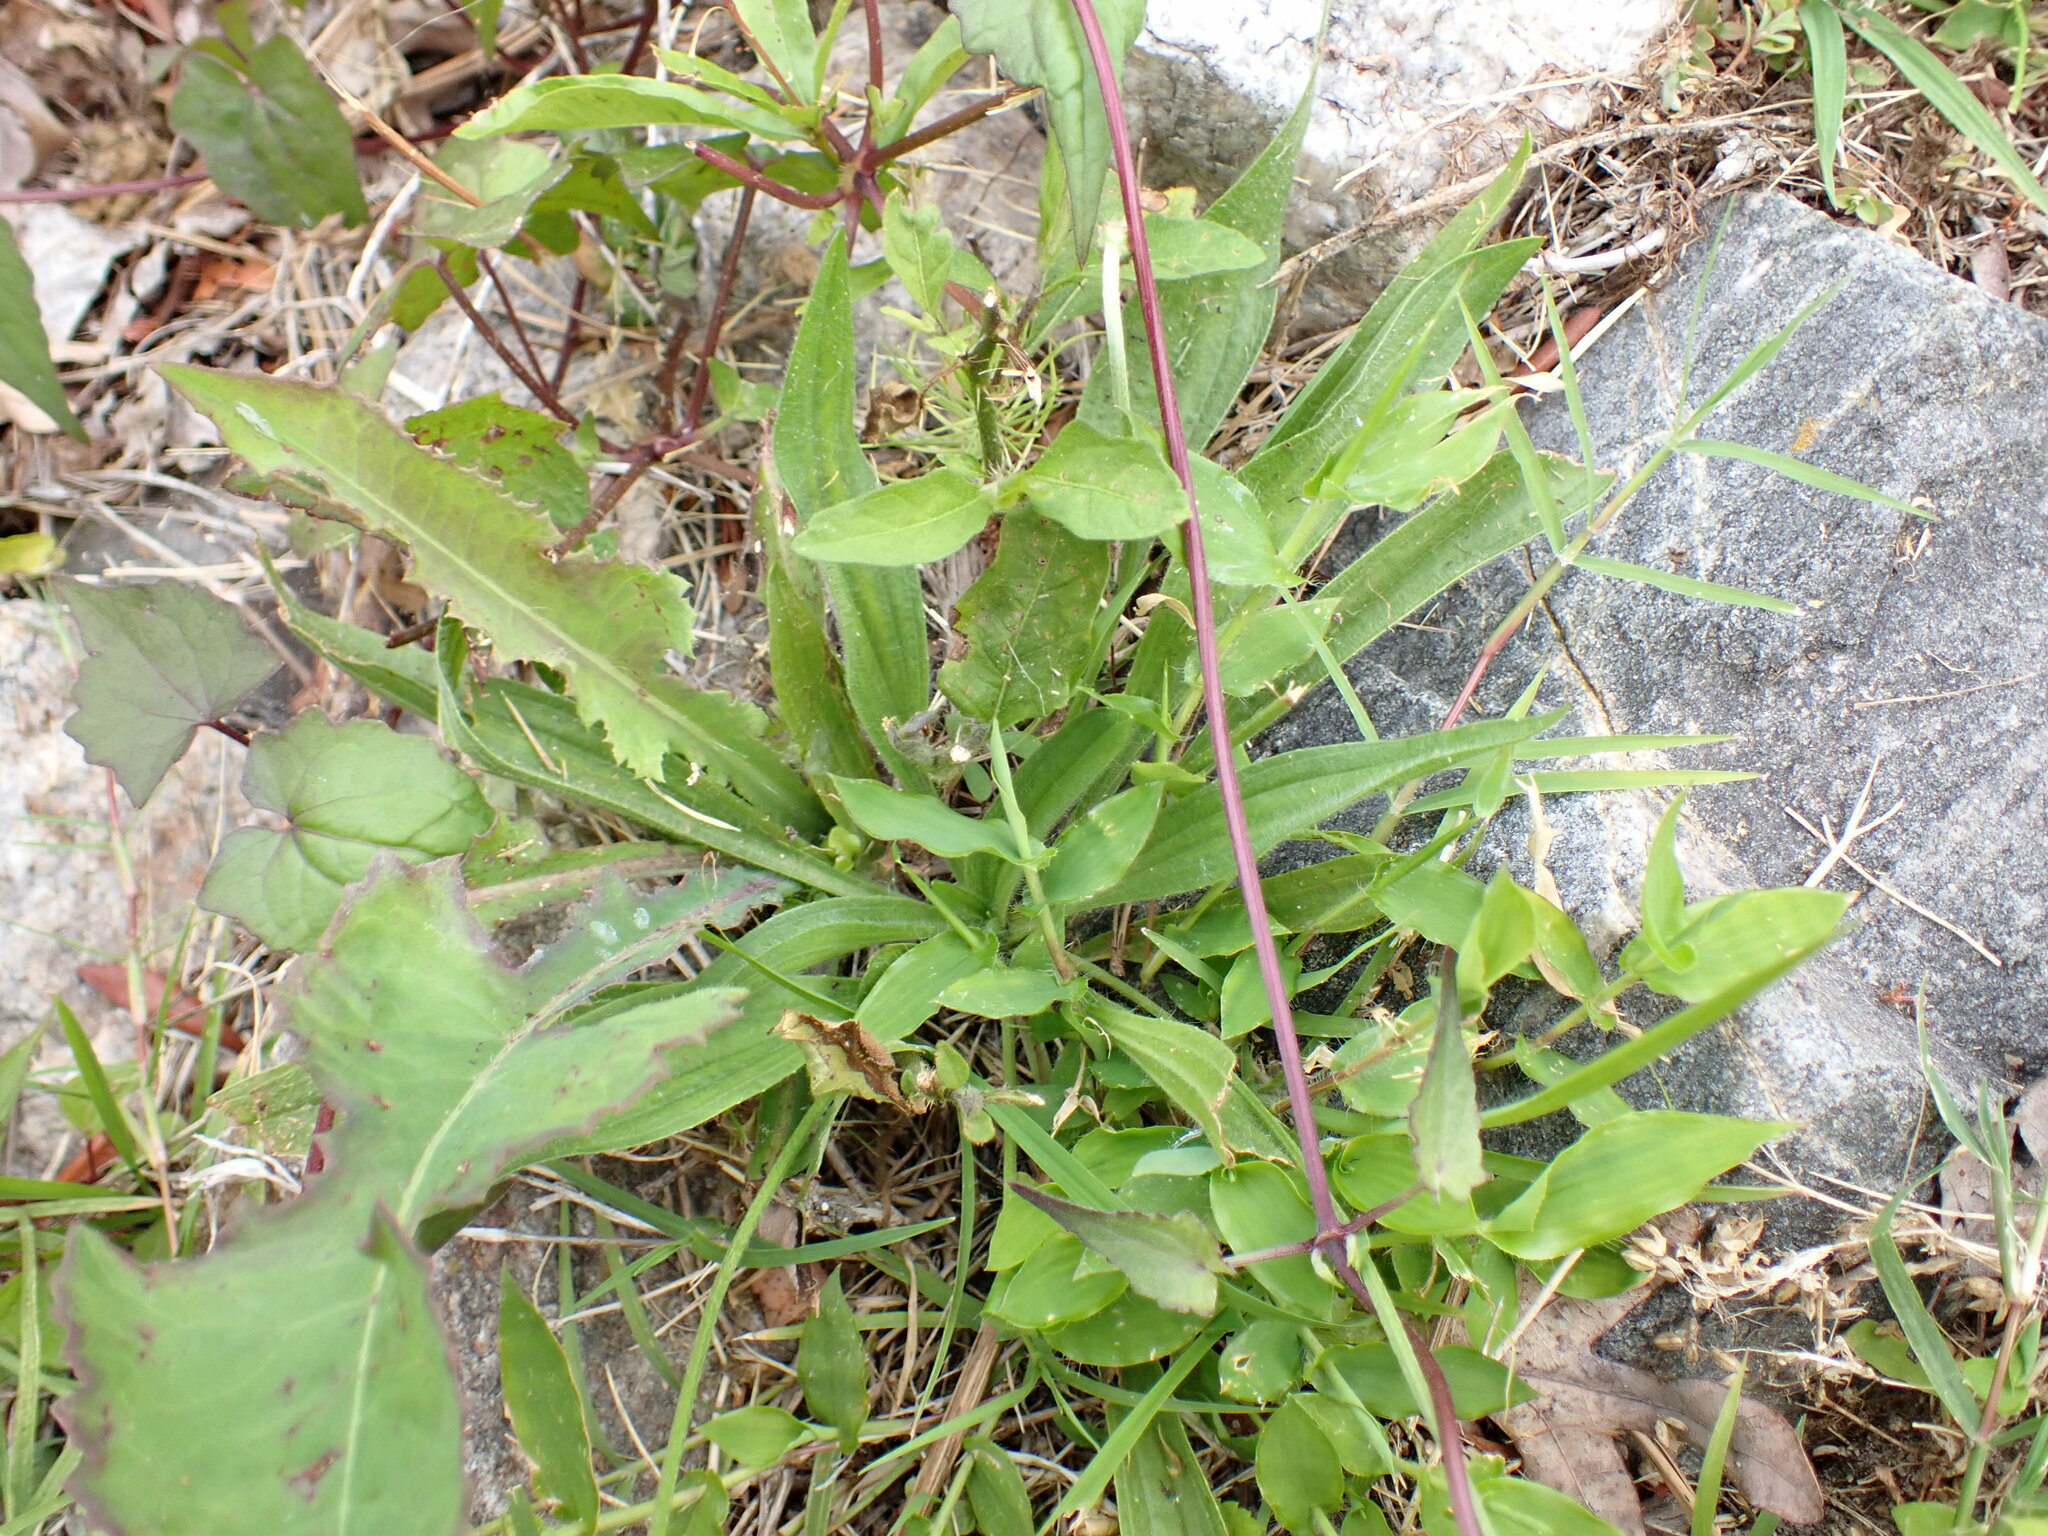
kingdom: Plantae
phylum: Tracheophyta
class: Magnoliopsida
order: Lamiales
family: Plantaginaceae
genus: Plantago
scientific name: Plantago lanceolata
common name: Ribwort plantain
